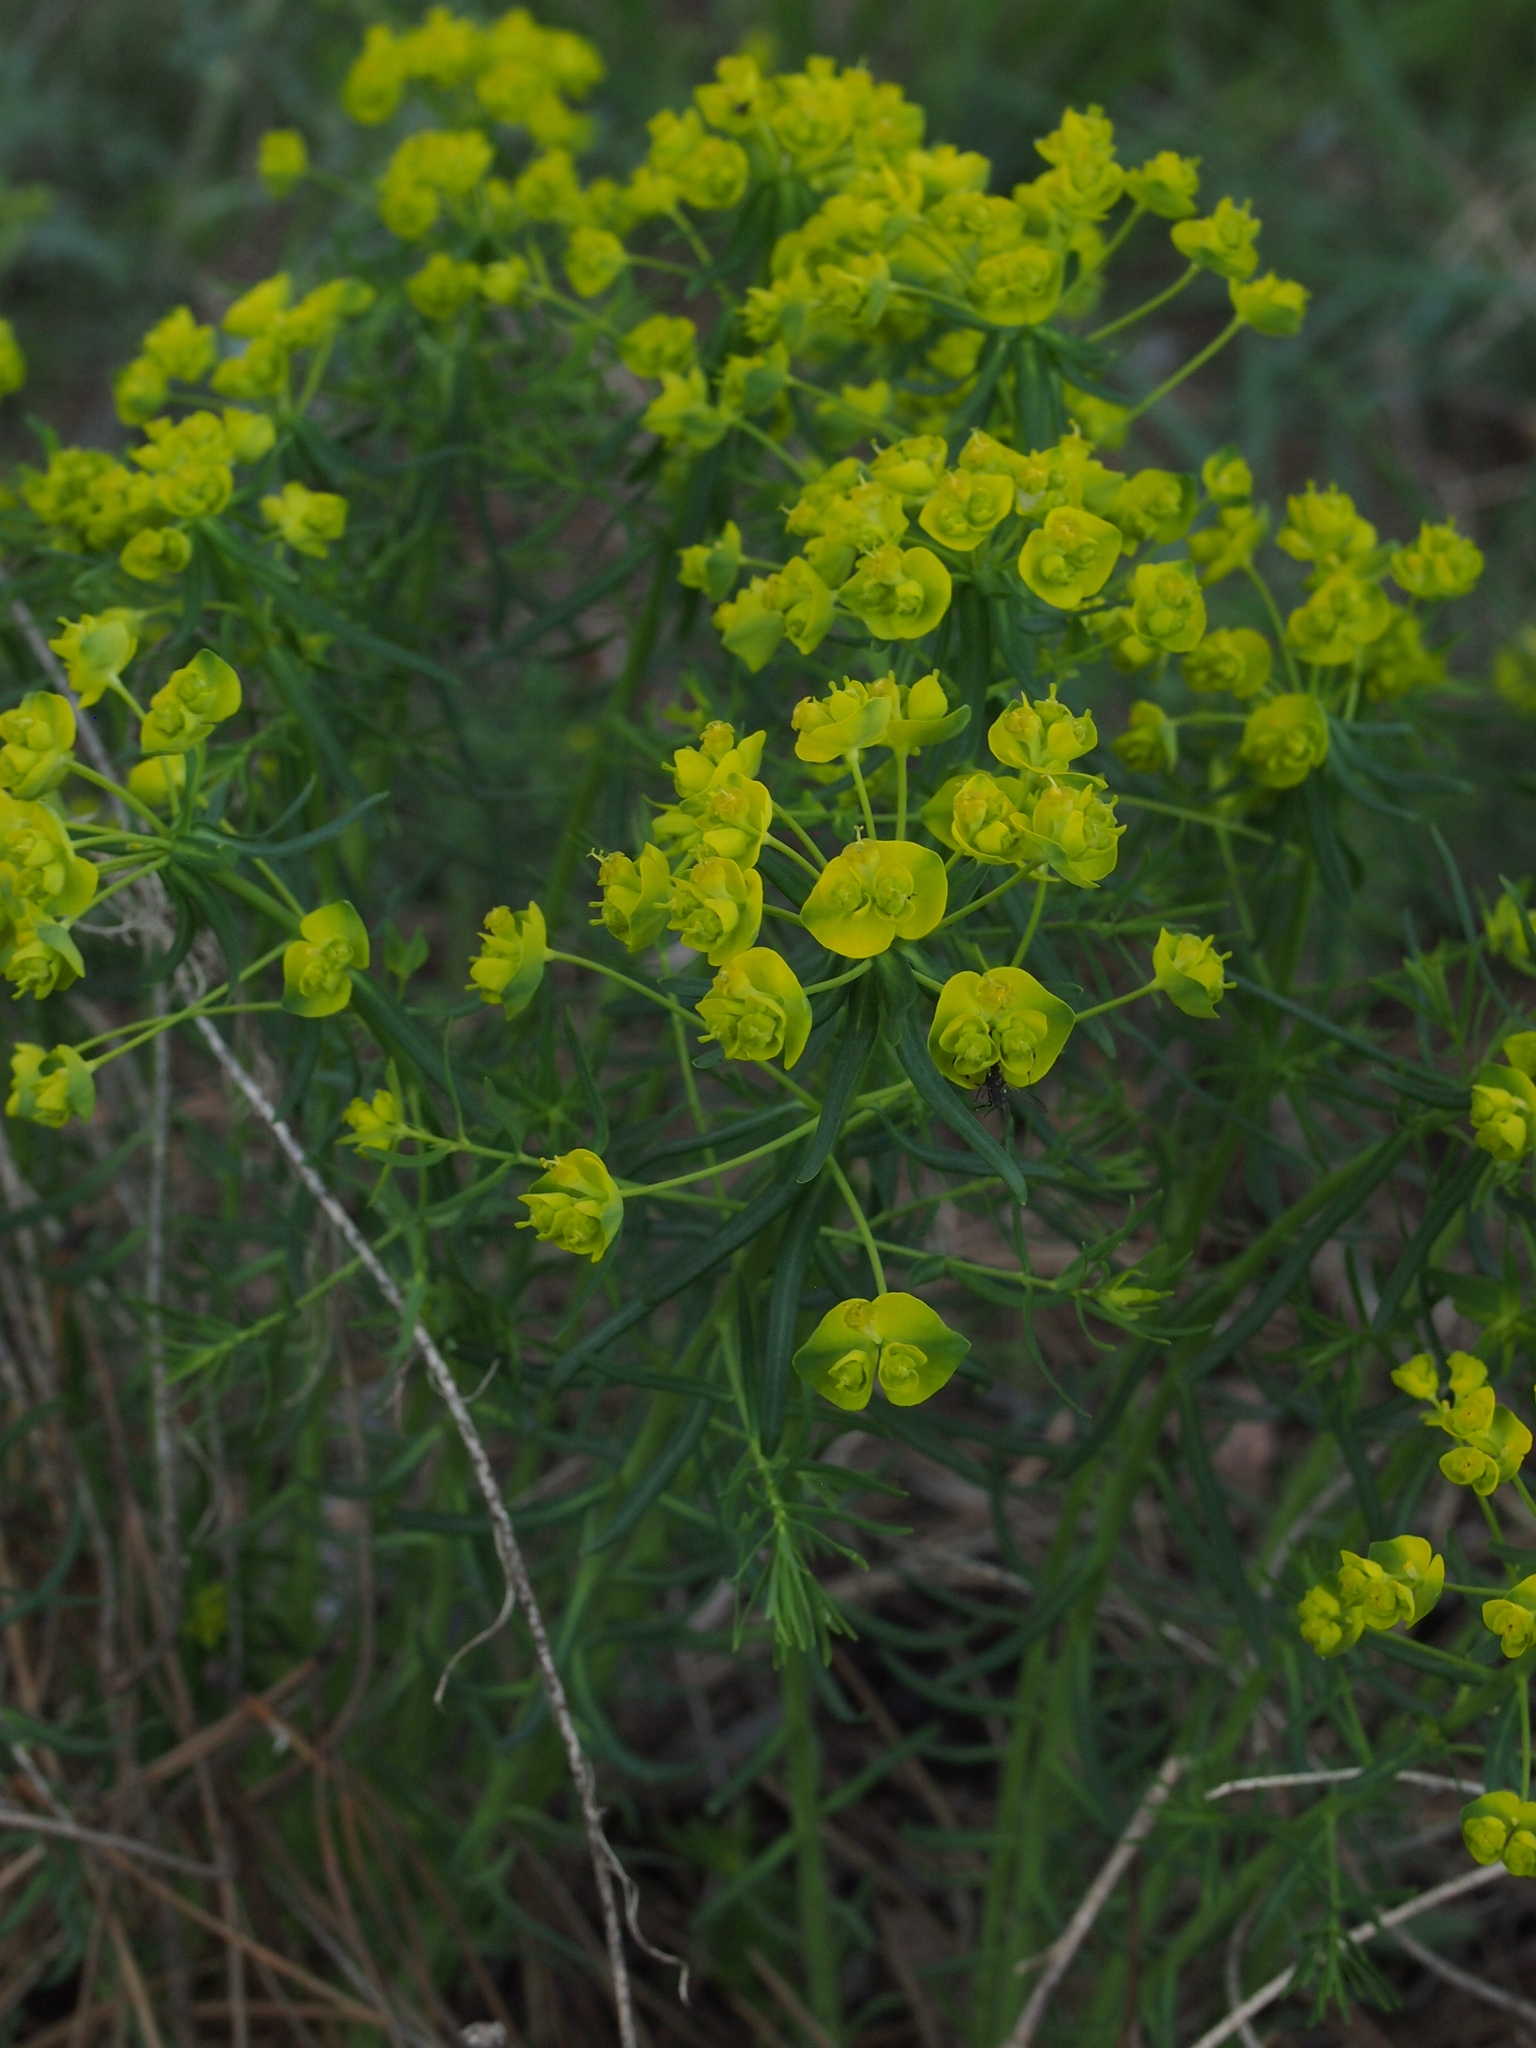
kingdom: Plantae
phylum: Tracheophyta
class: Magnoliopsida
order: Malpighiales
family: Euphorbiaceae
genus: Euphorbia
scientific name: Euphorbia cyparissias
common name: Cypress spurge
